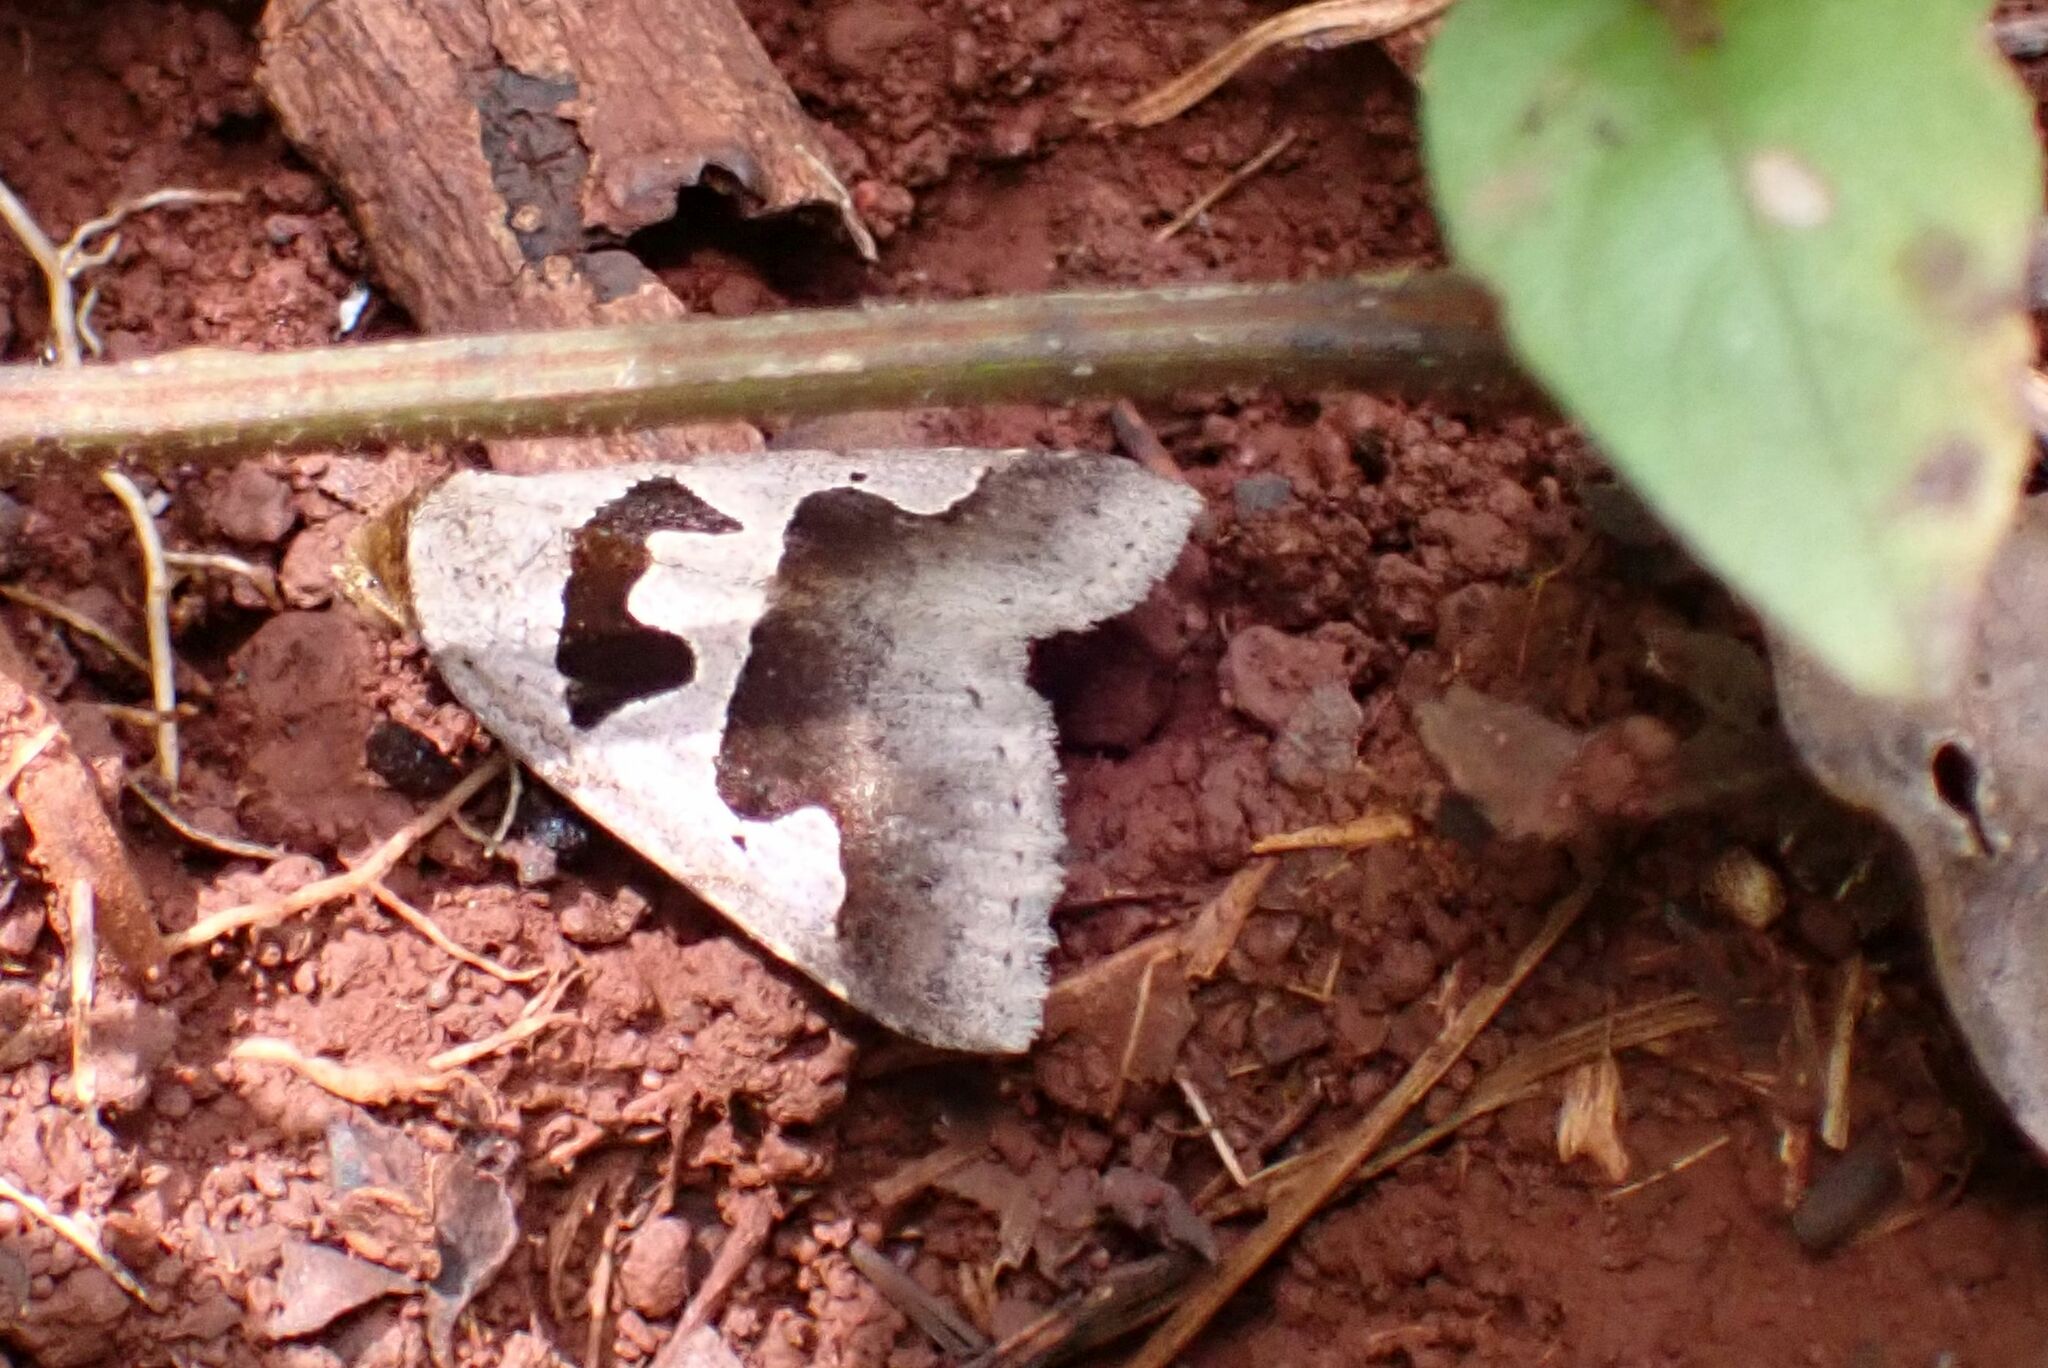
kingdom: Animalia
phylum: Arthropoda
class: Insecta
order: Lepidoptera
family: Erebidae
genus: Anoba
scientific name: Anoba atripuncta
